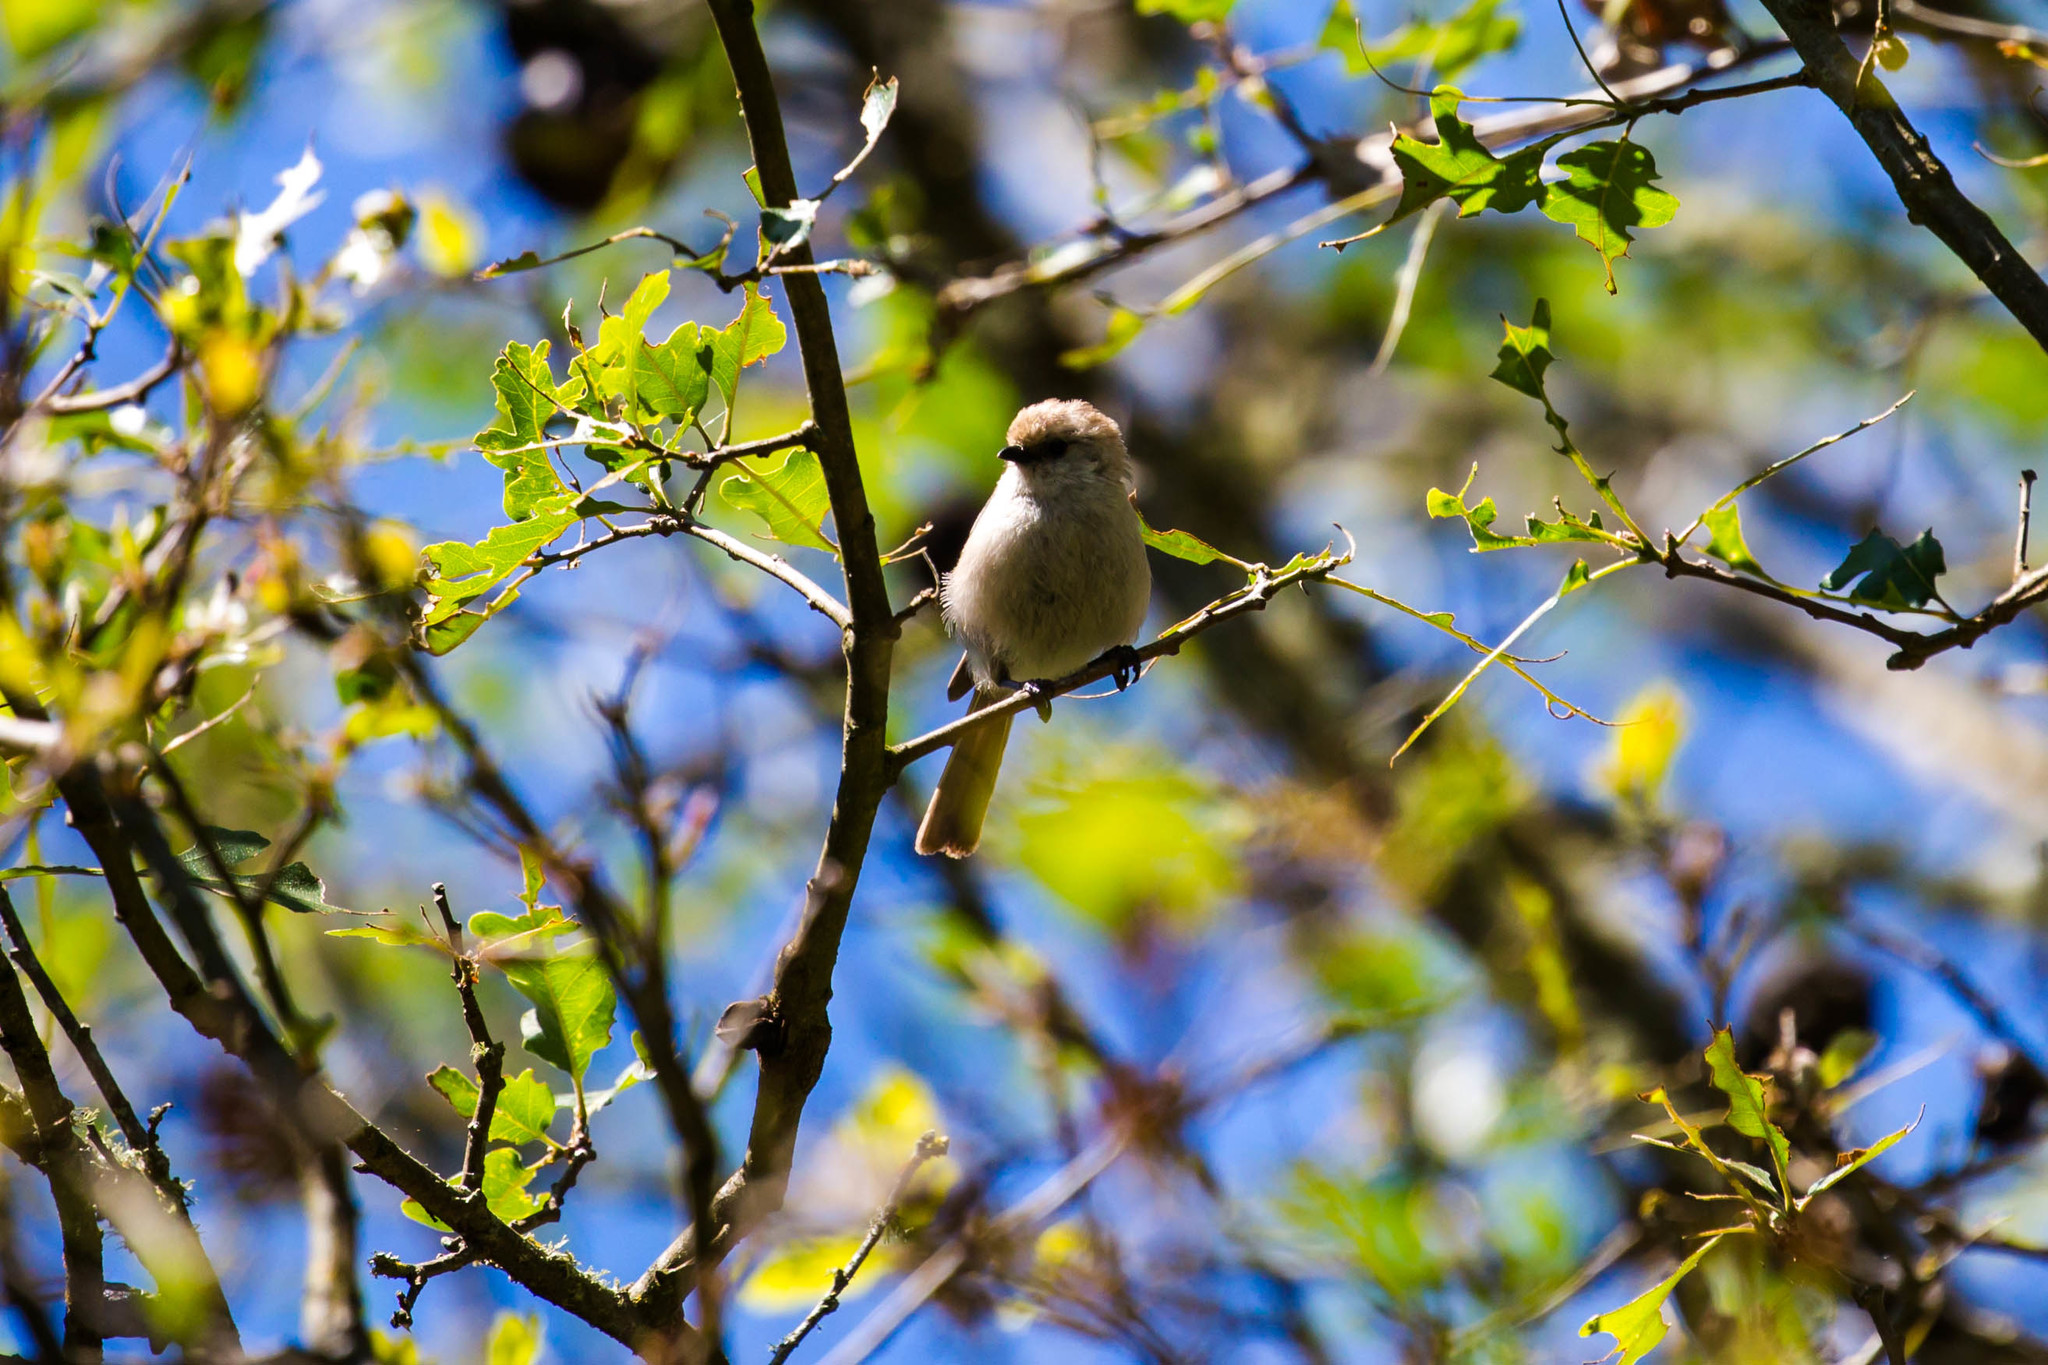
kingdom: Animalia
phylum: Chordata
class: Aves
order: Passeriformes
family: Aegithalidae
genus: Psaltriparus
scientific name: Psaltriparus minimus
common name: American bushtit
